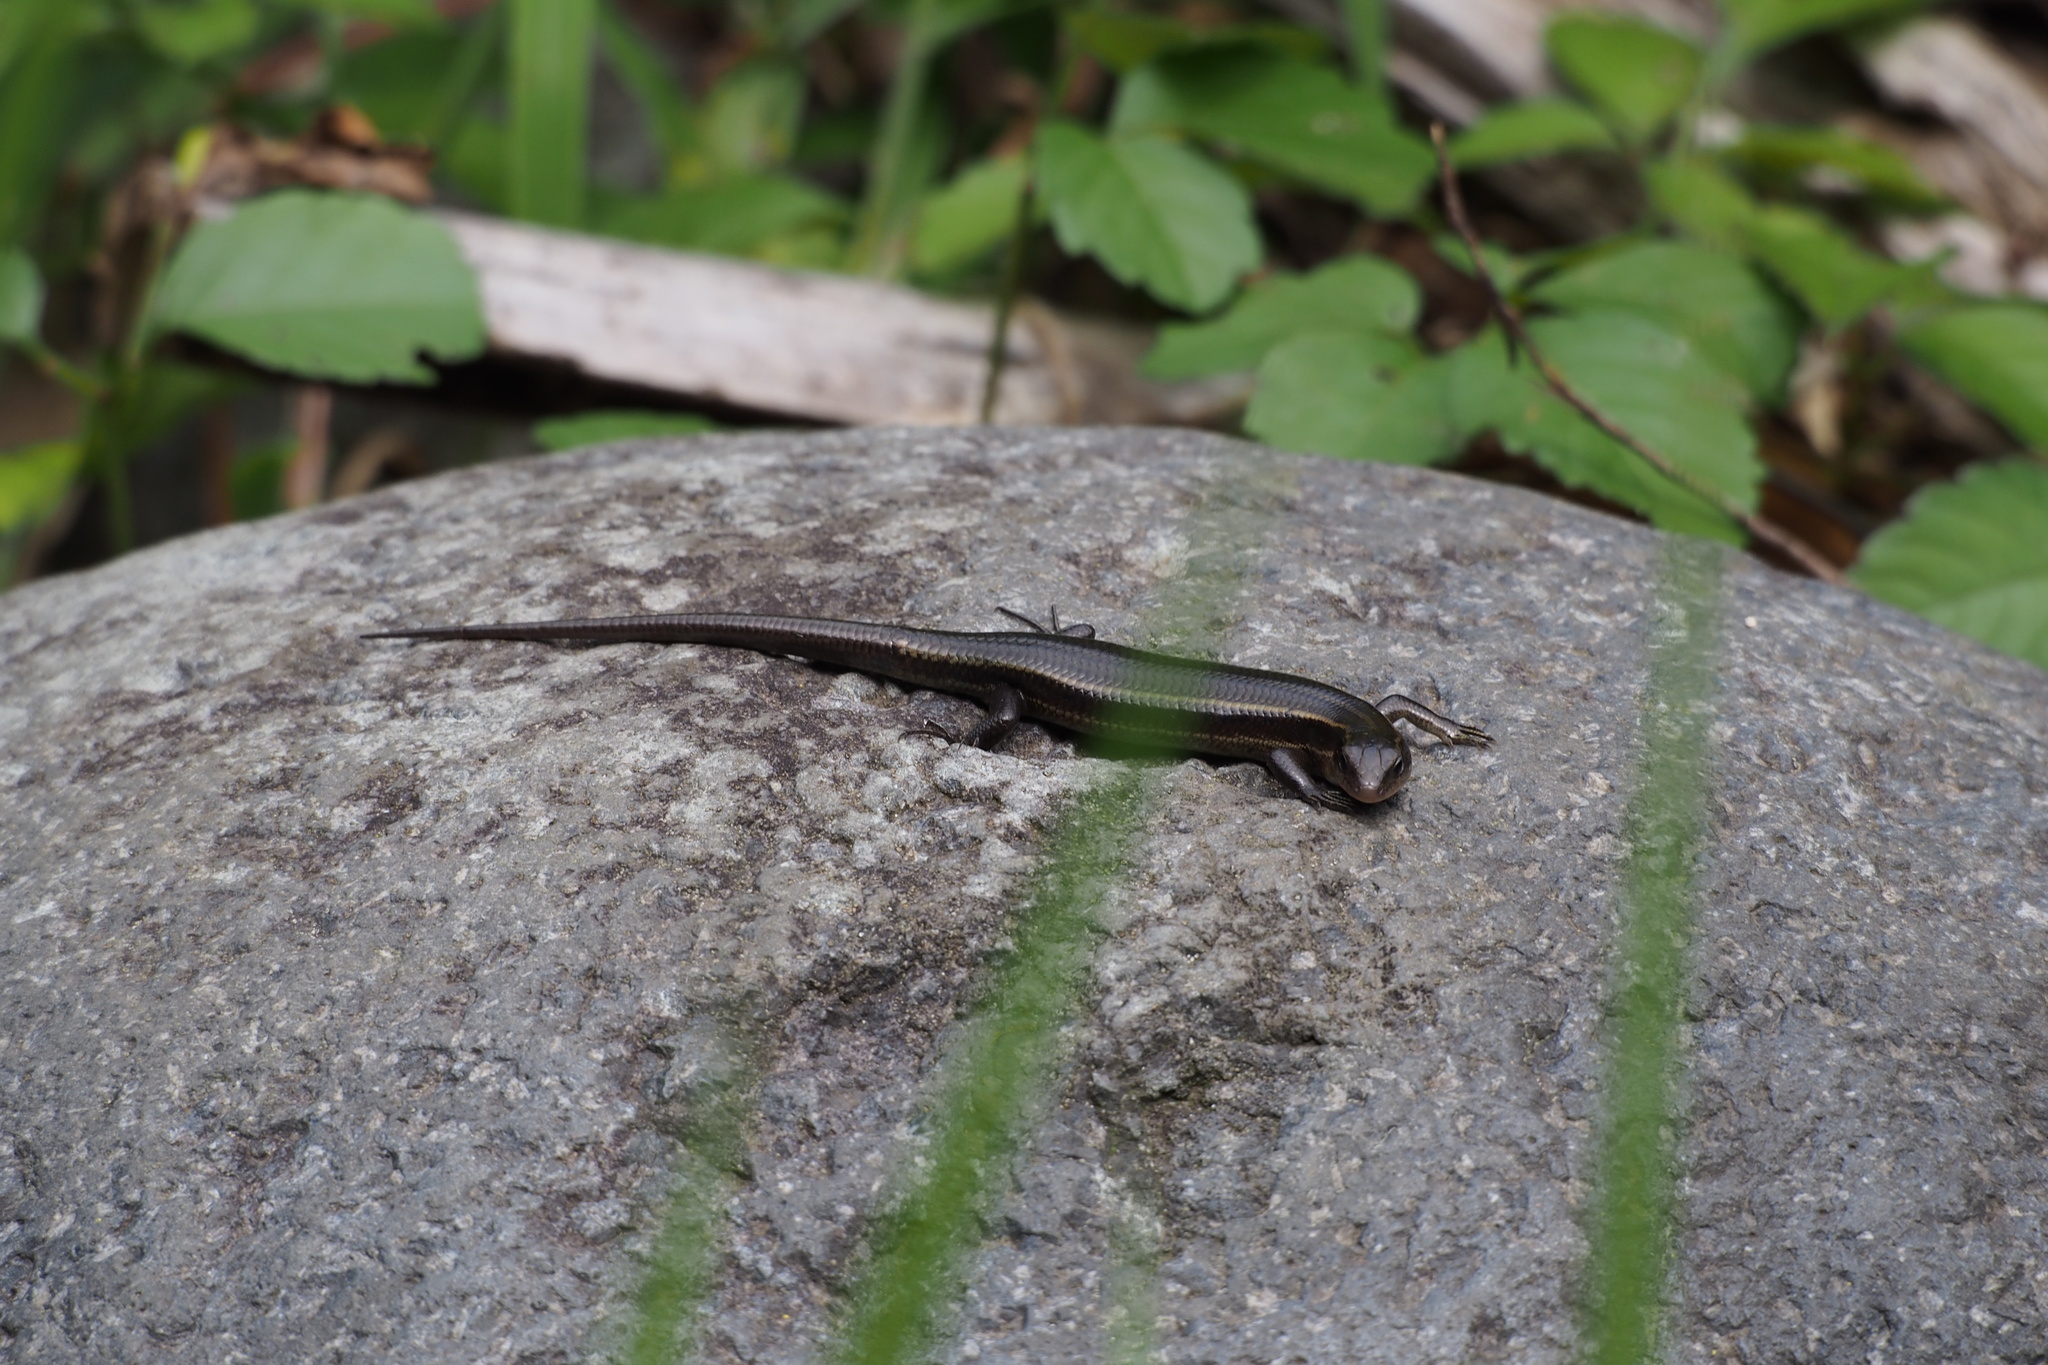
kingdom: Animalia
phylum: Chordata
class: Squamata
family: Scincidae
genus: Plestiodon
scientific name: Plestiodon latiscutatus
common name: Far eastern skink
